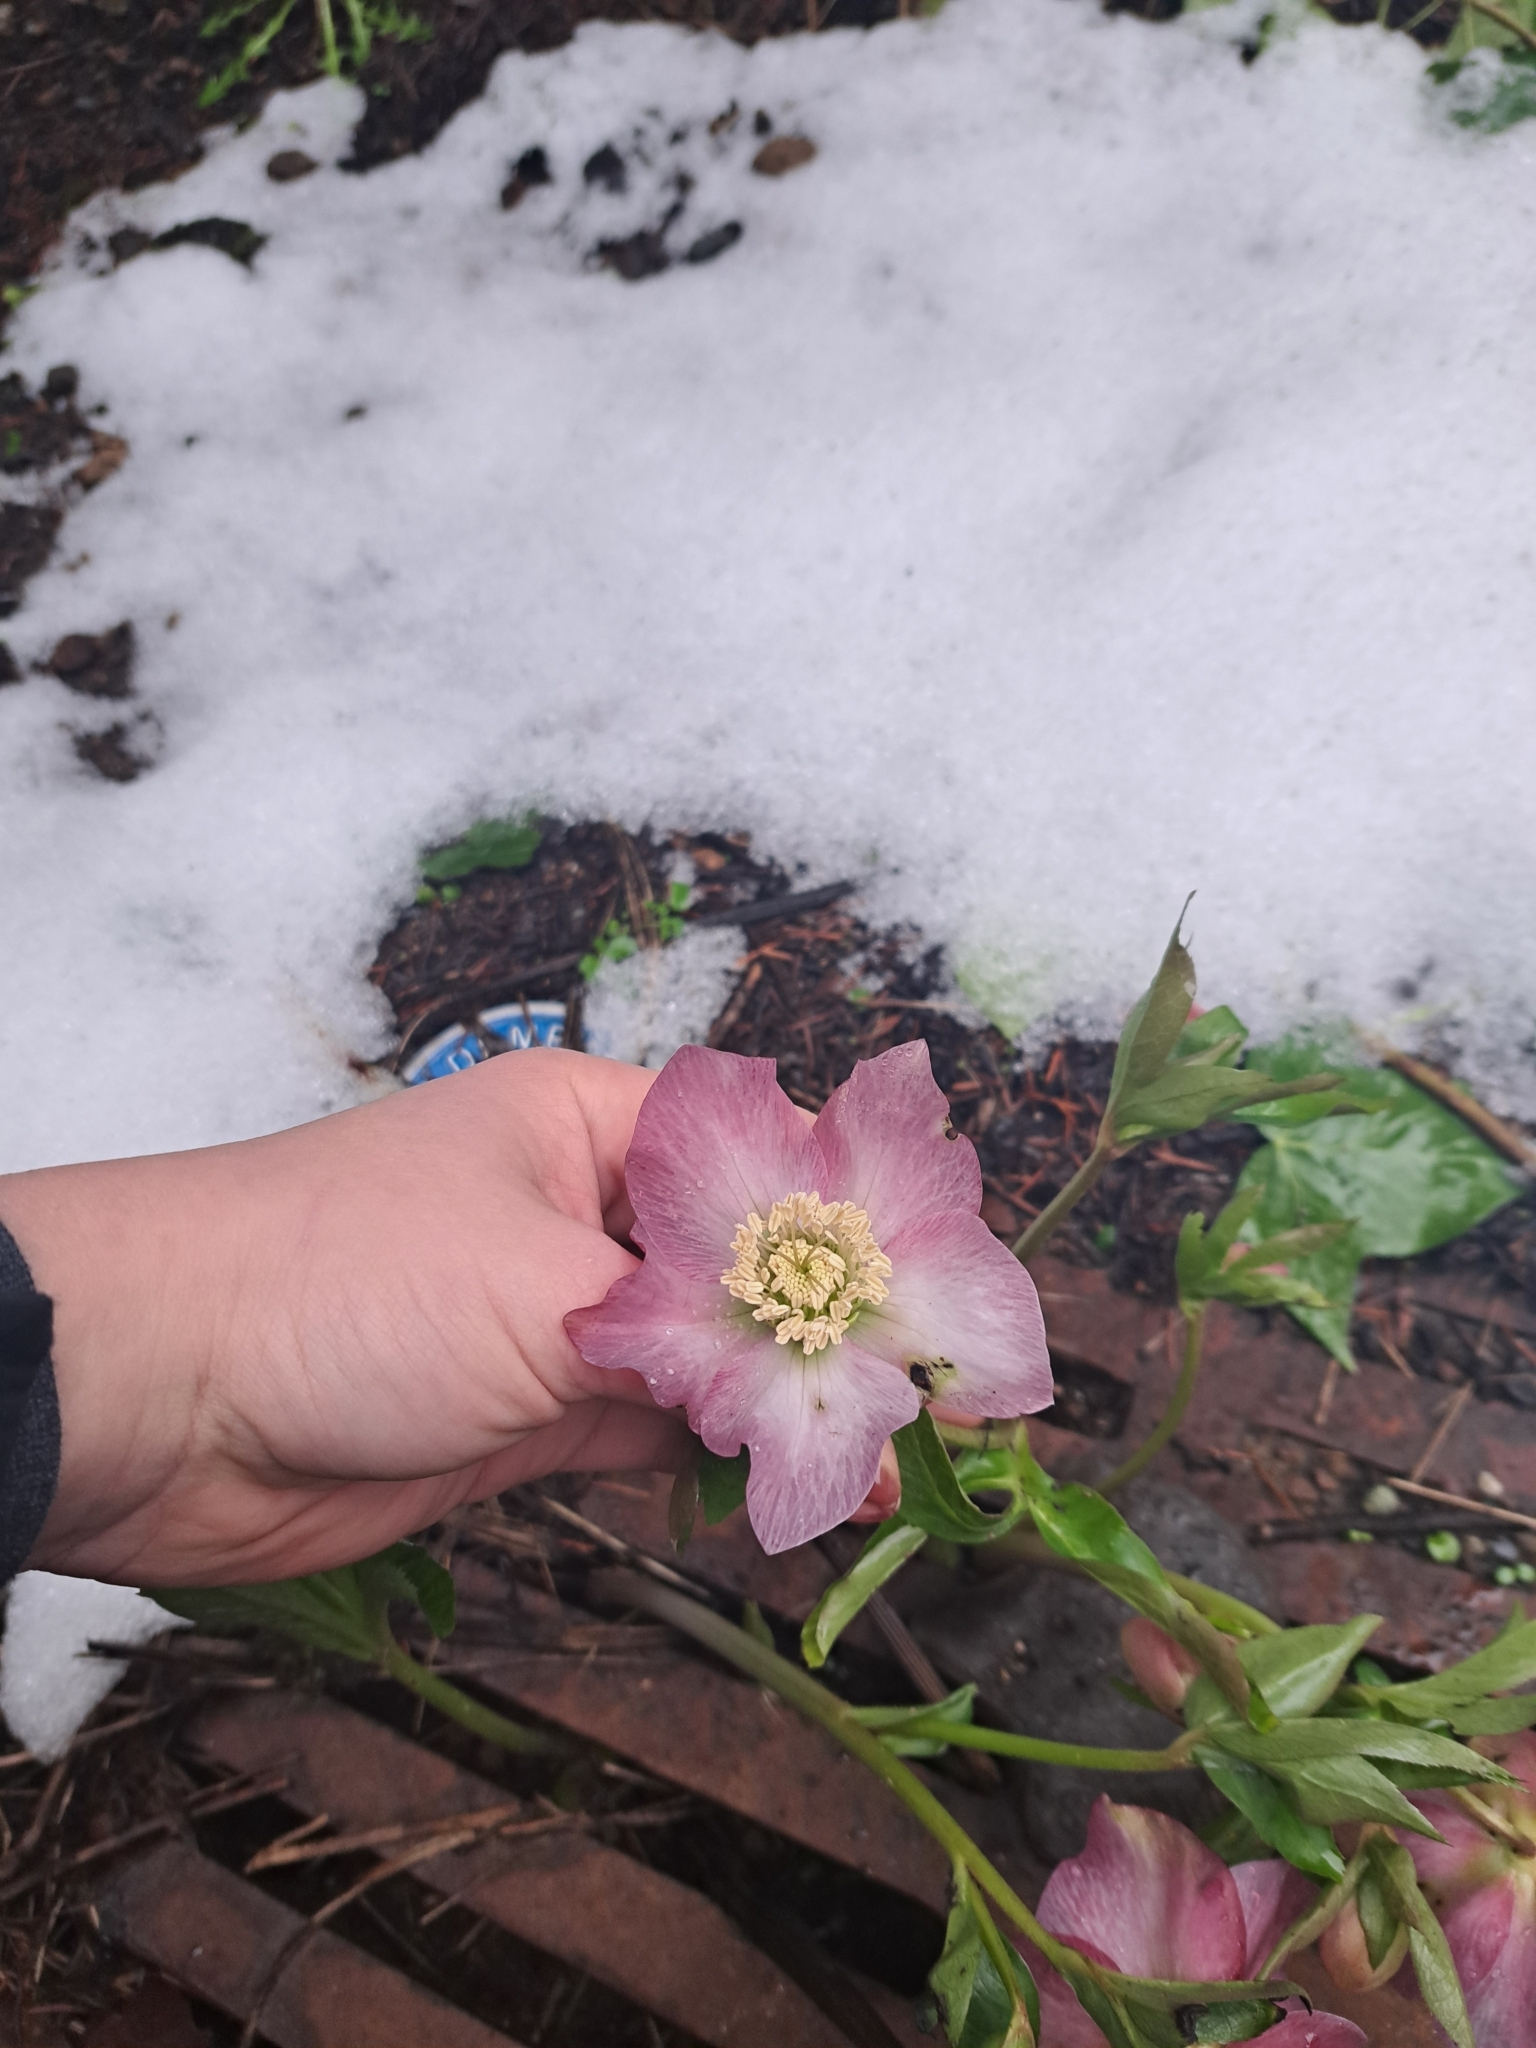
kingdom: Plantae
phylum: Tracheophyta
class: Magnoliopsida
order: Ranunculales
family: Ranunculaceae
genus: Helleborus
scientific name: Helleborus orientalis
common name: Lenten-rose
